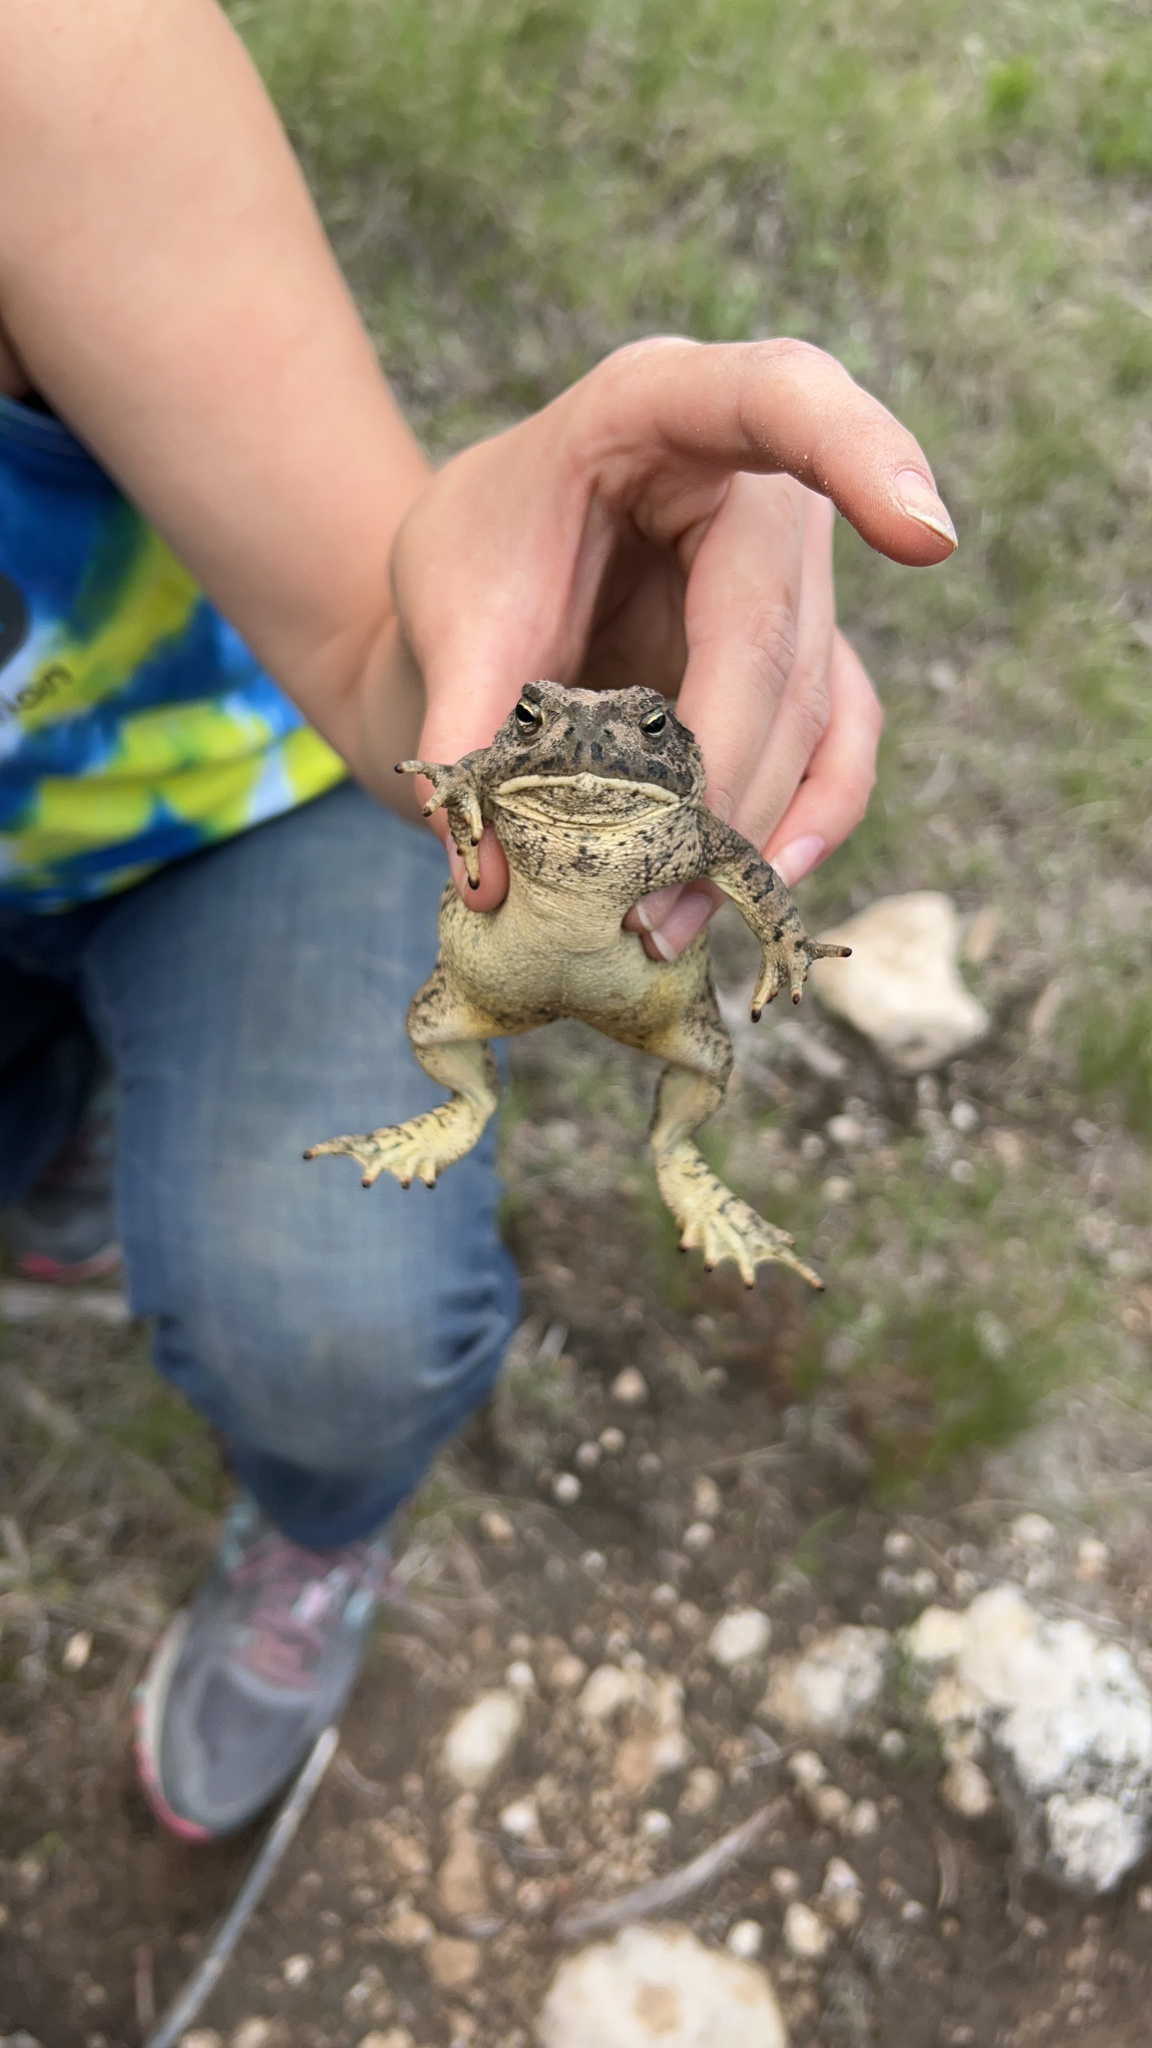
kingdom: Animalia
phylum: Chordata
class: Amphibia
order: Anura
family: Bufonidae
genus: Anaxyrus
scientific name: Anaxyrus woodhousii
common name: Woodhouse's toad
